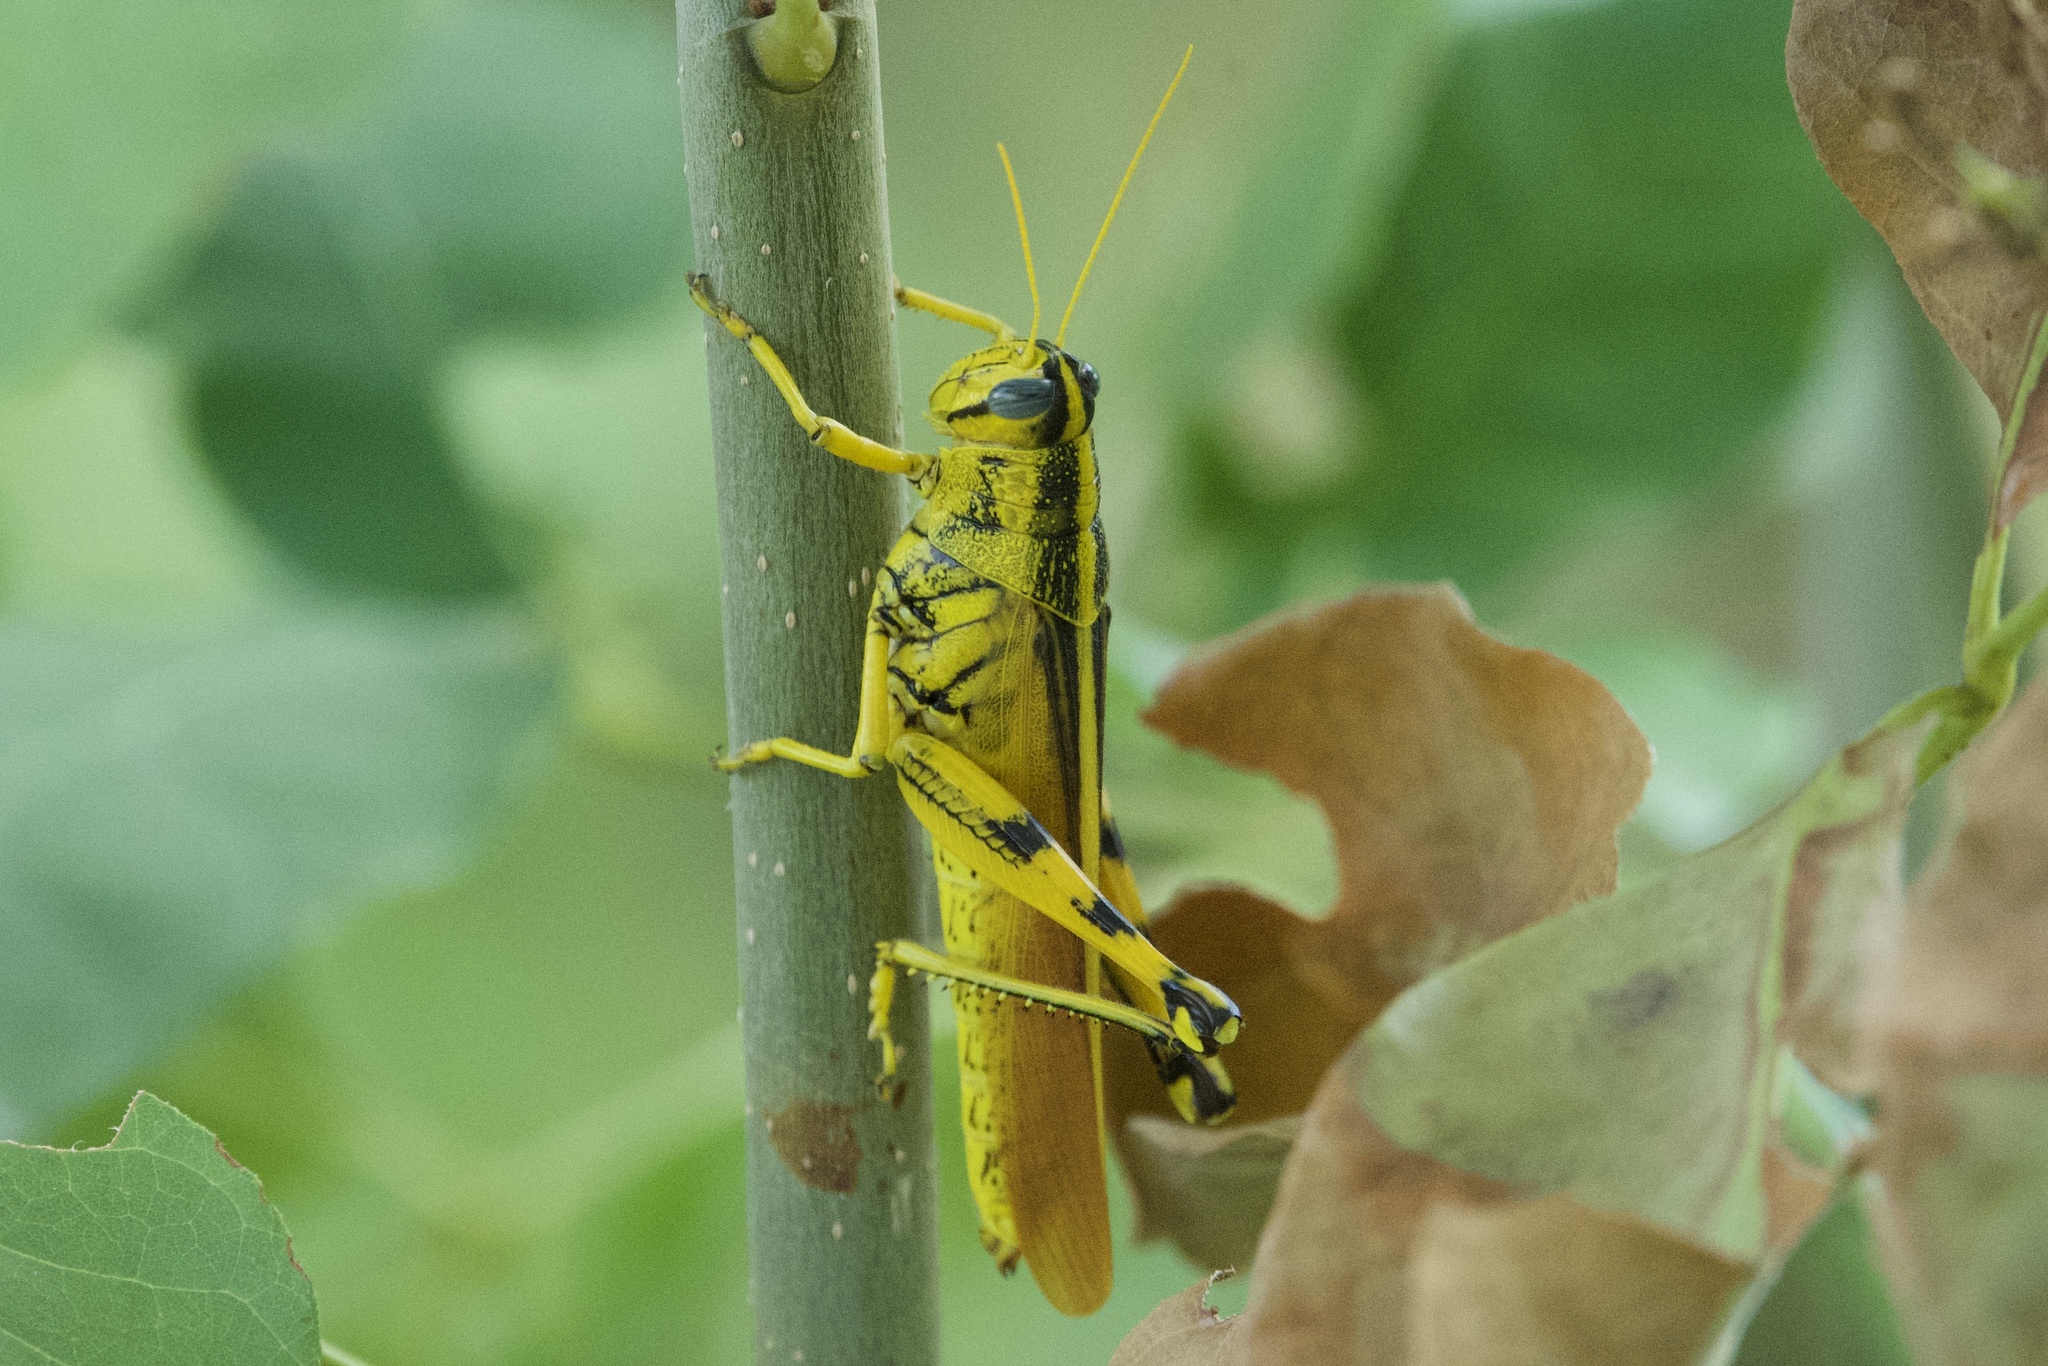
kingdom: Animalia
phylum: Arthropoda
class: Insecta
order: Orthoptera
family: Acrididae
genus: Schistocerca
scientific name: Schistocerca lineata
